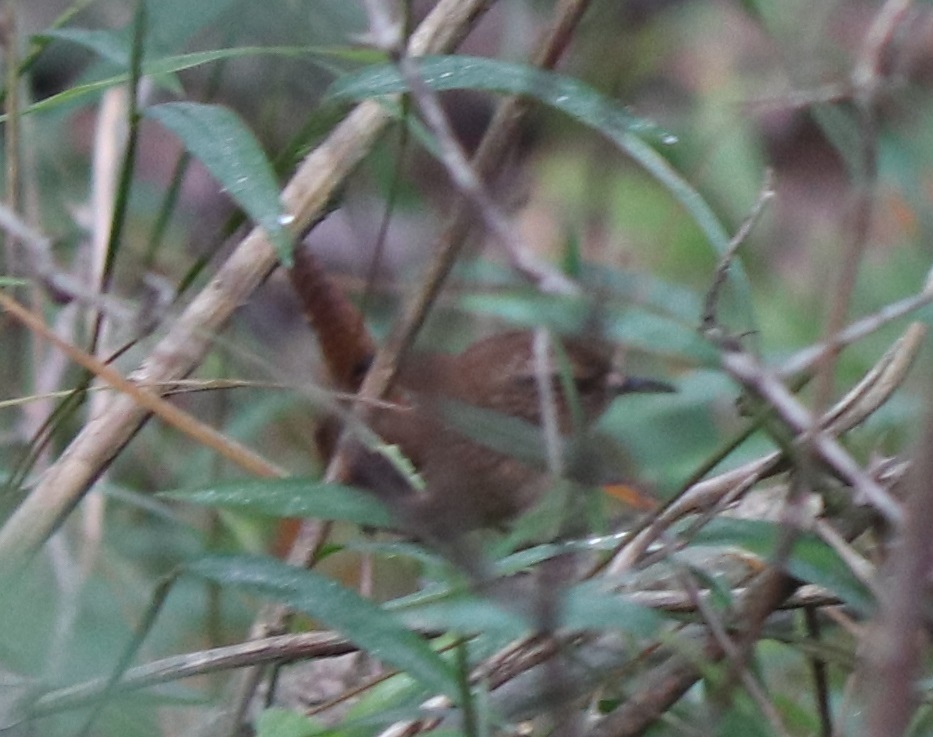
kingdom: Animalia
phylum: Chordata
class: Aves
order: Passeriformes
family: Troglodytidae
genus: Troglodytes
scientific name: Troglodytes hiemalis
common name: Winter wren
